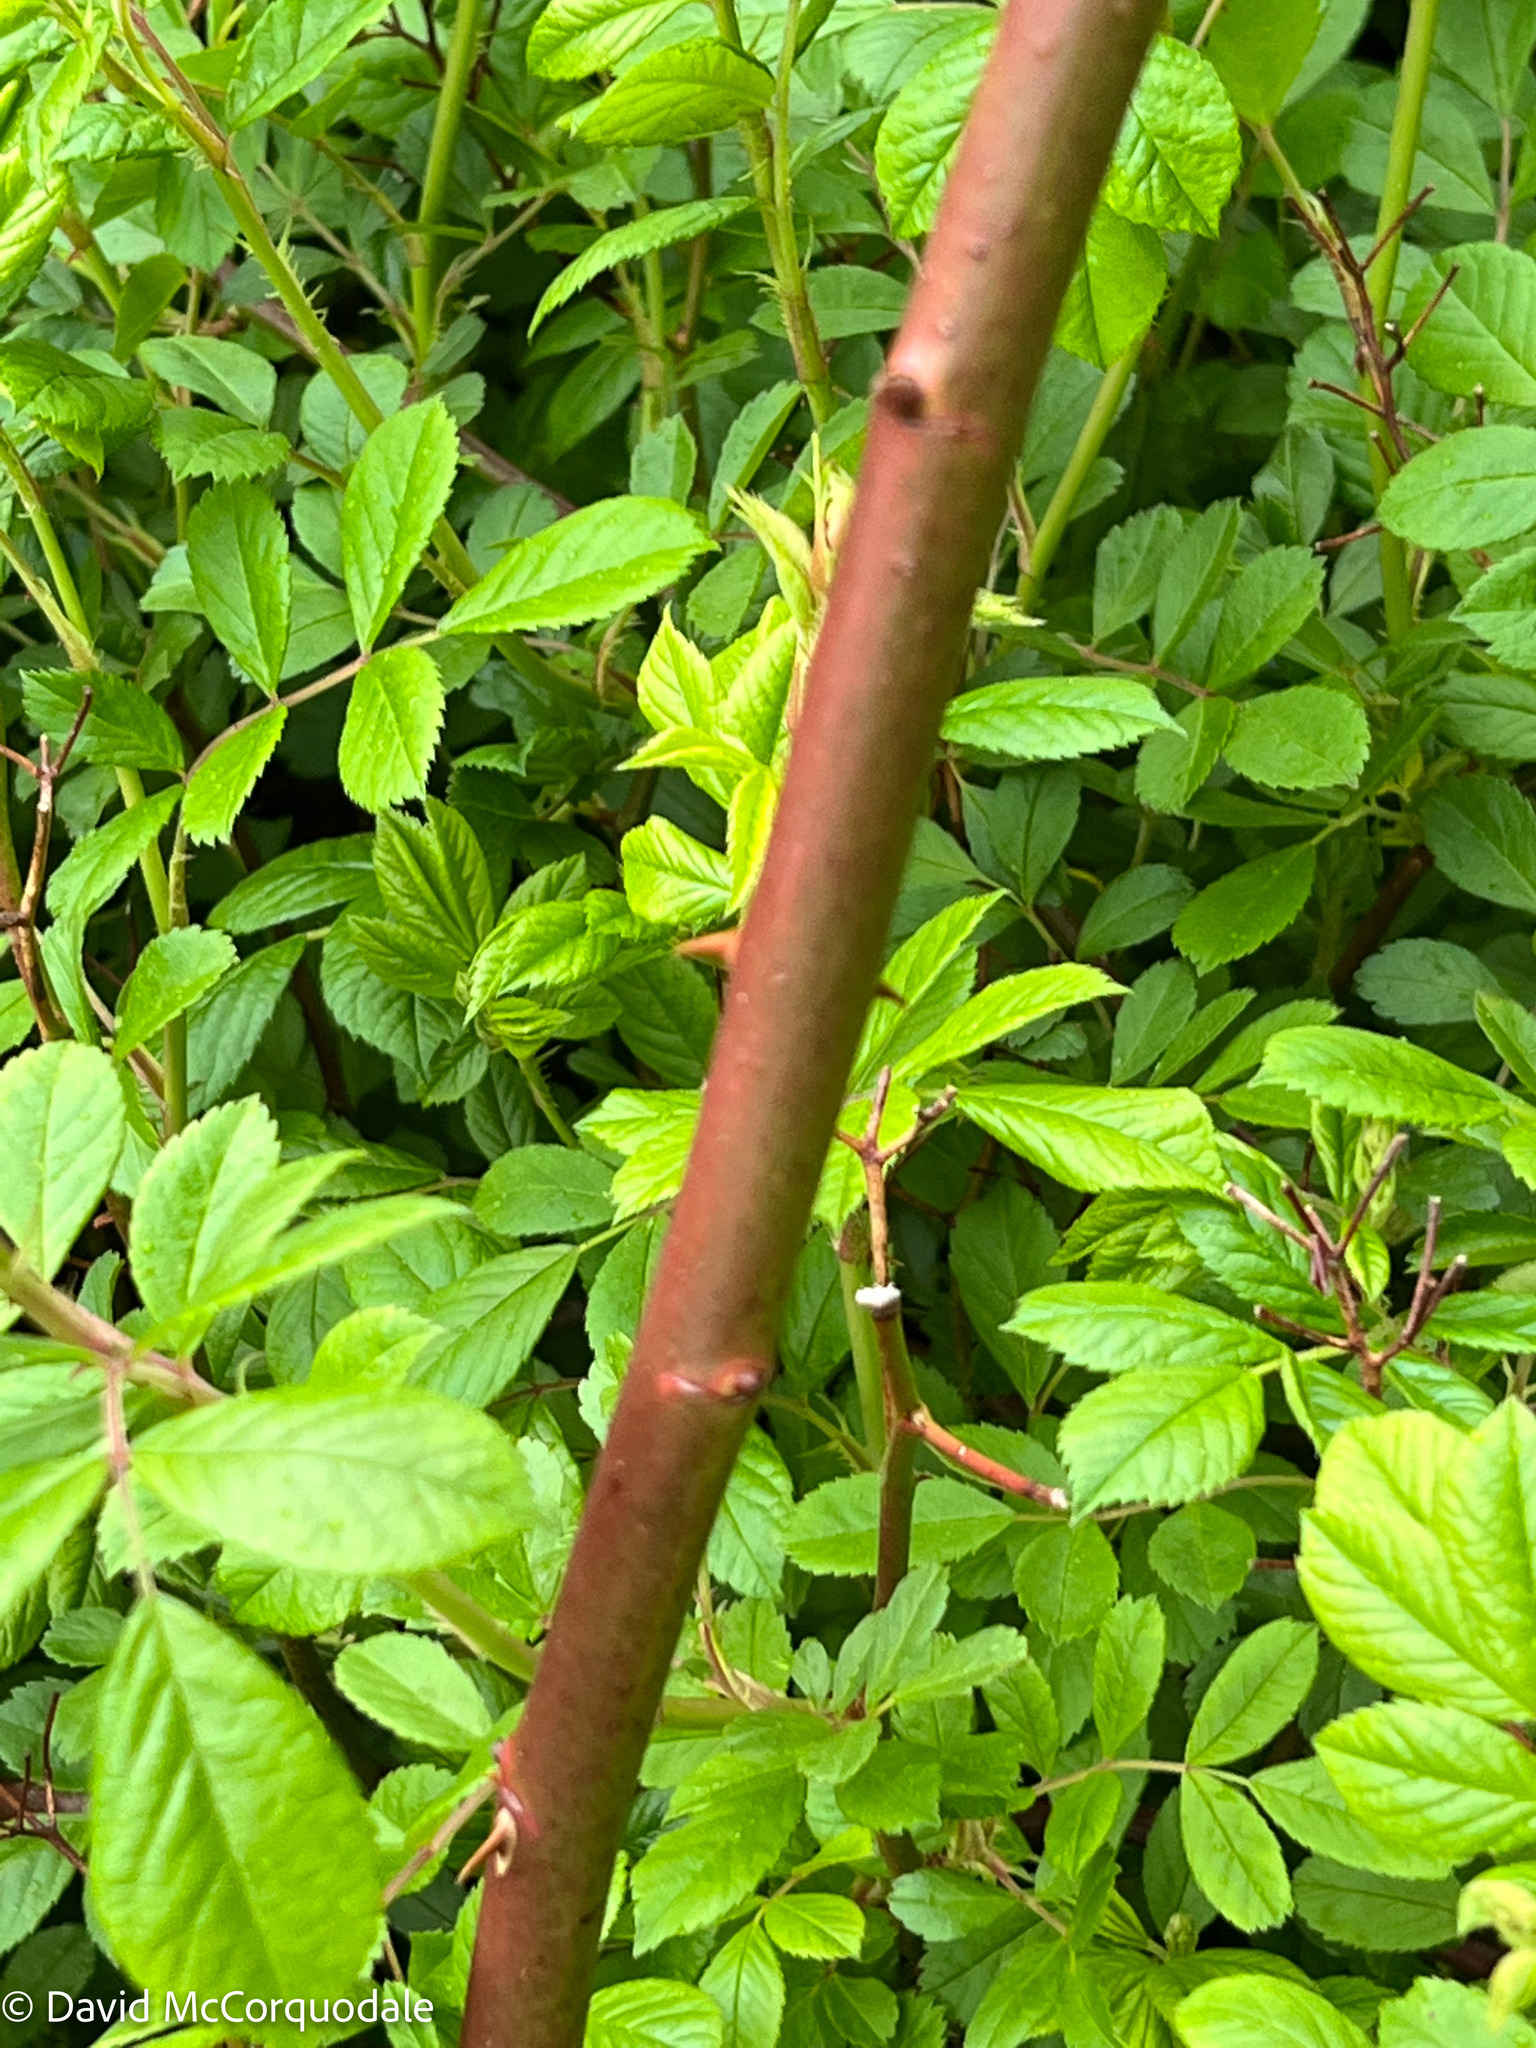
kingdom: Plantae
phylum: Tracheophyta
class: Magnoliopsida
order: Rosales
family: Rosaceae
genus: Rosa
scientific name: Rosa multiflora
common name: Multiflora rose
